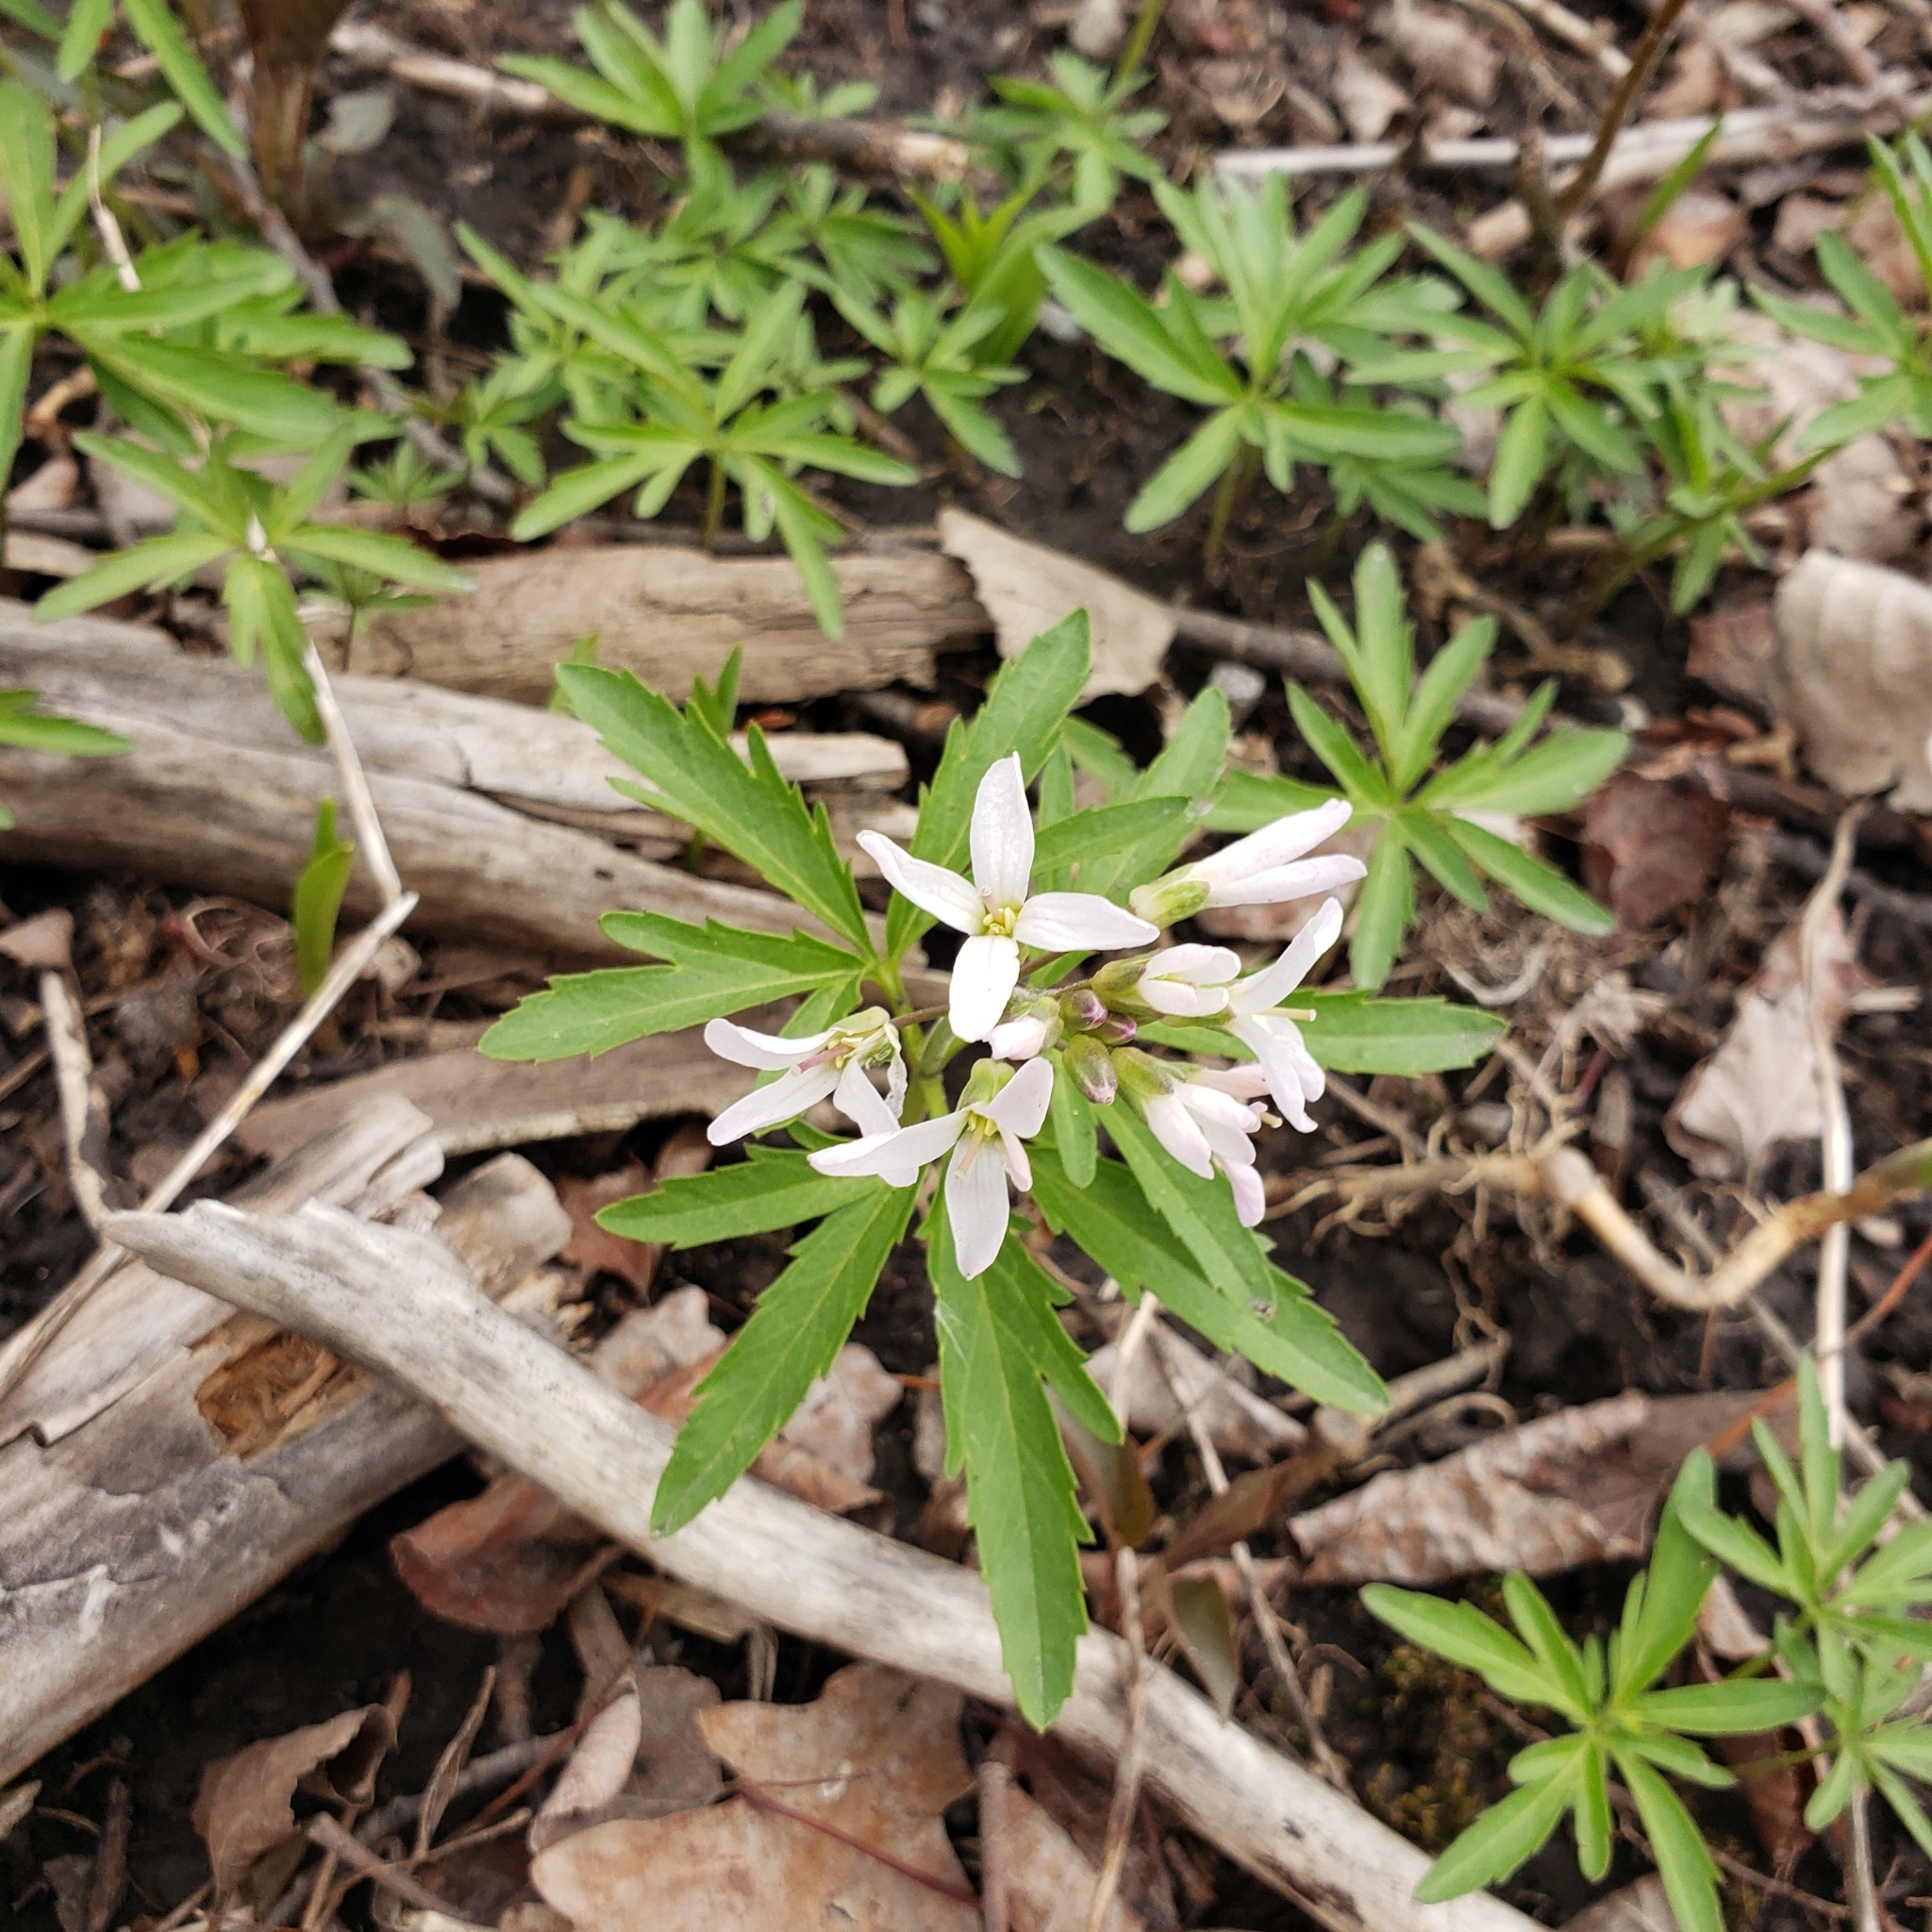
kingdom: Plantae
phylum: Tracheophyta
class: Magnoliopsida
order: Brassicales
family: Brassicaceae
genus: Cardamine
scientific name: Cardamine concatenata
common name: Cut-leaf toothcup
